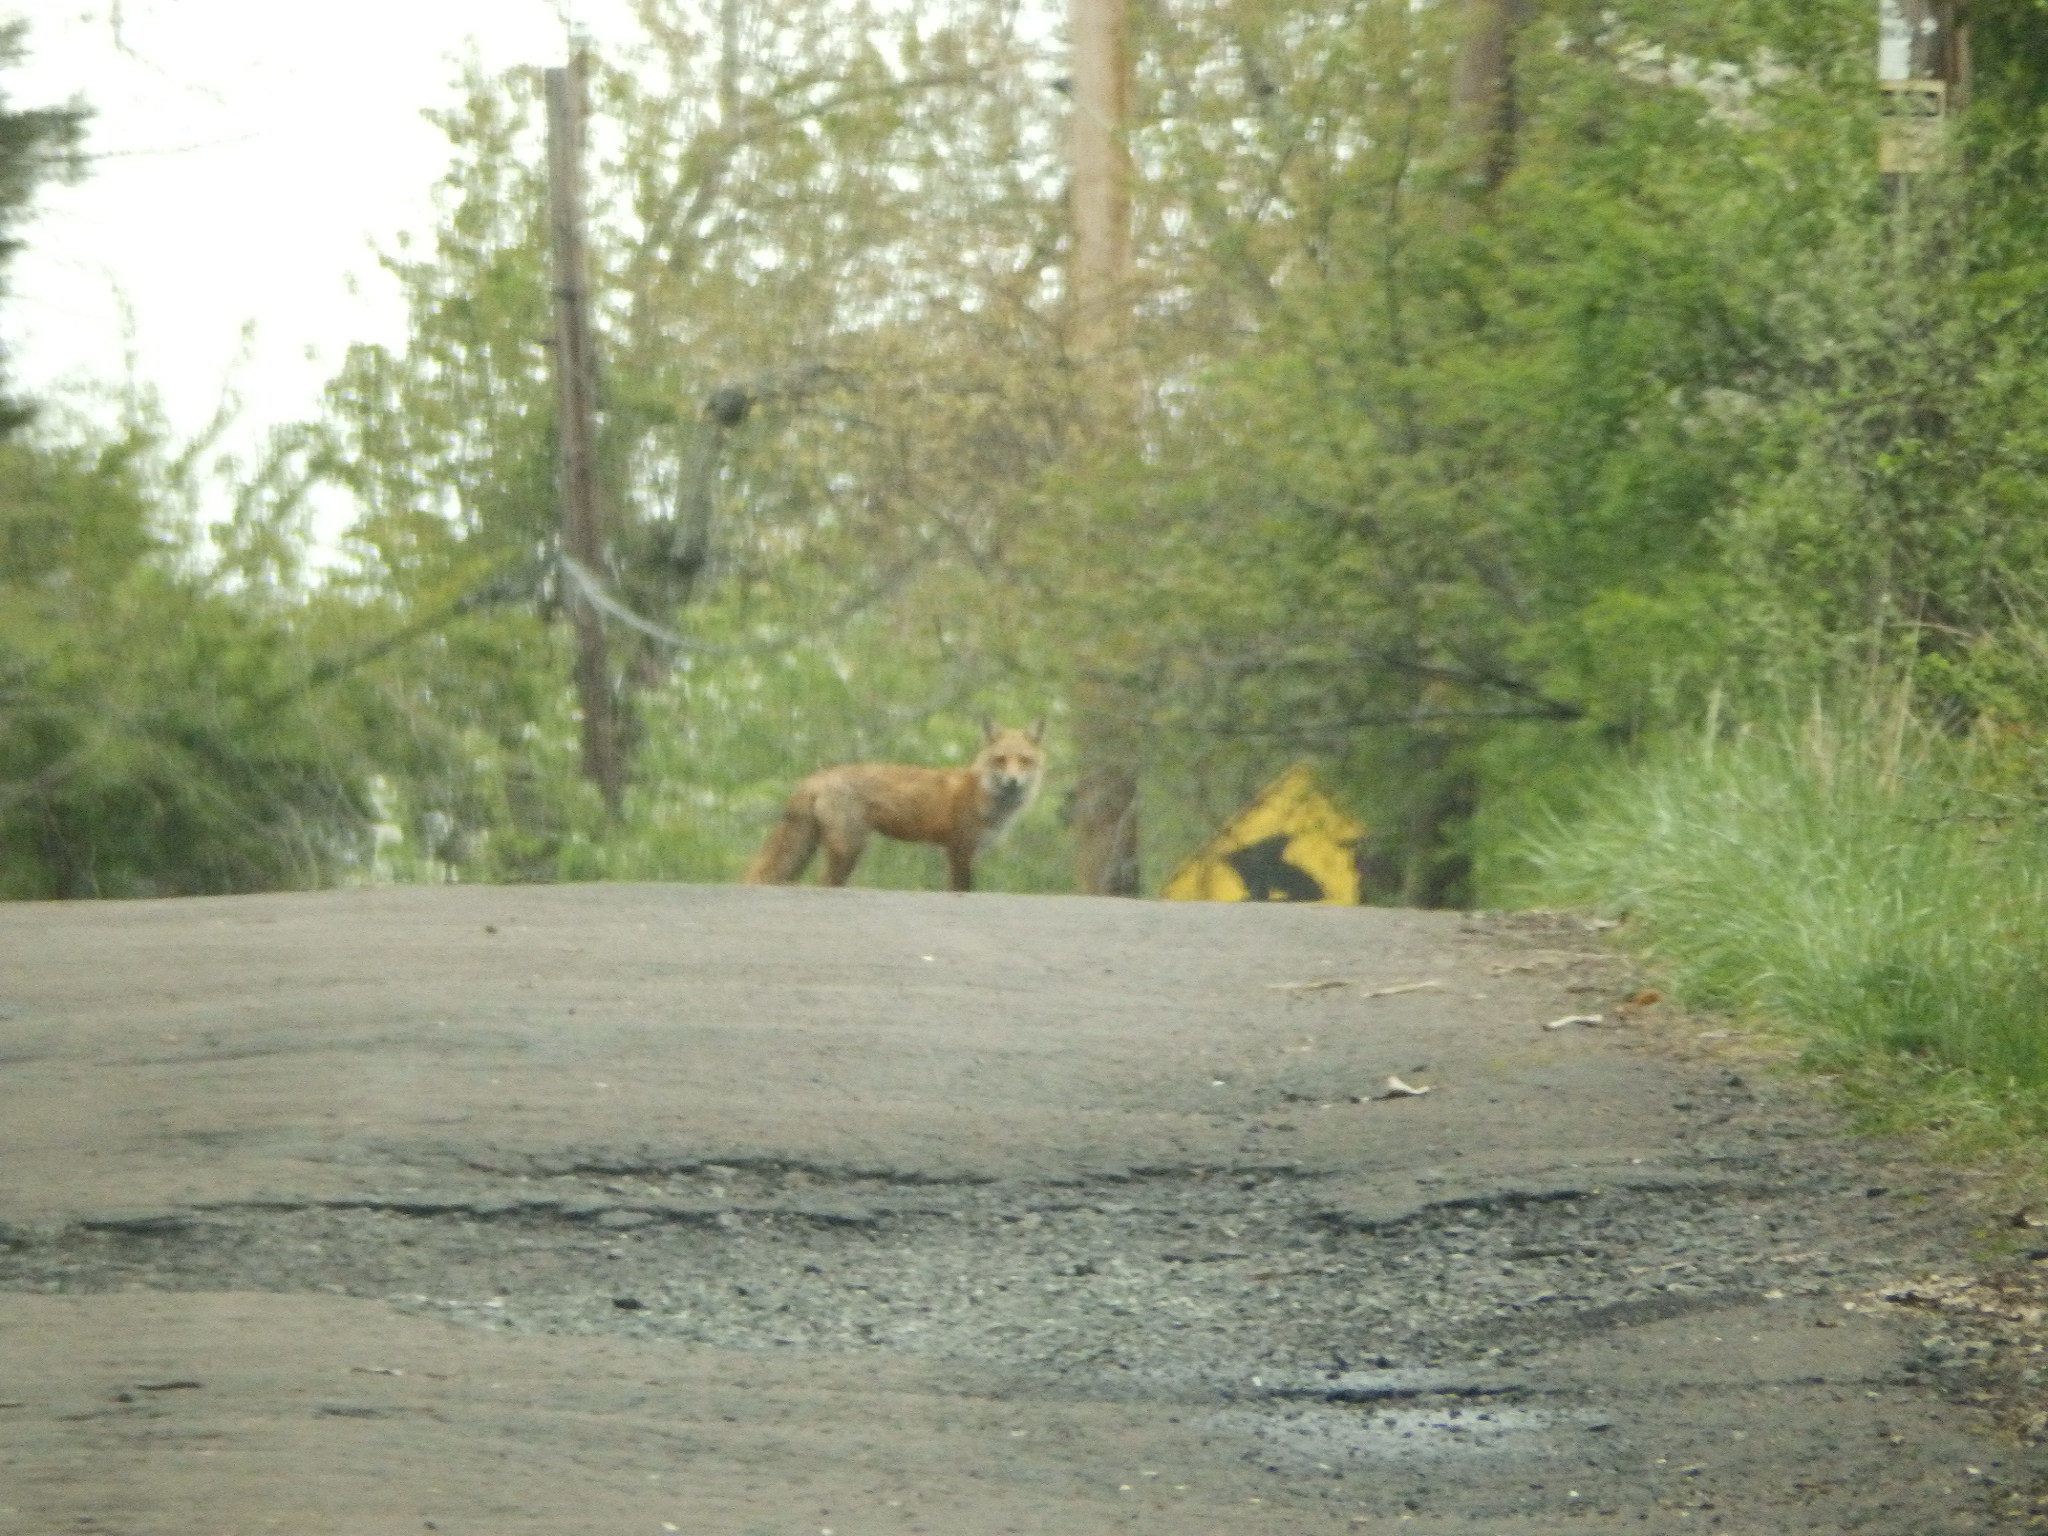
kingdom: Animalia
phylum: Chordata
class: Mammalia
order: Carnivora
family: Canidae
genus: Vulpes
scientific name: Vulpes vulpes
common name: Red fox
